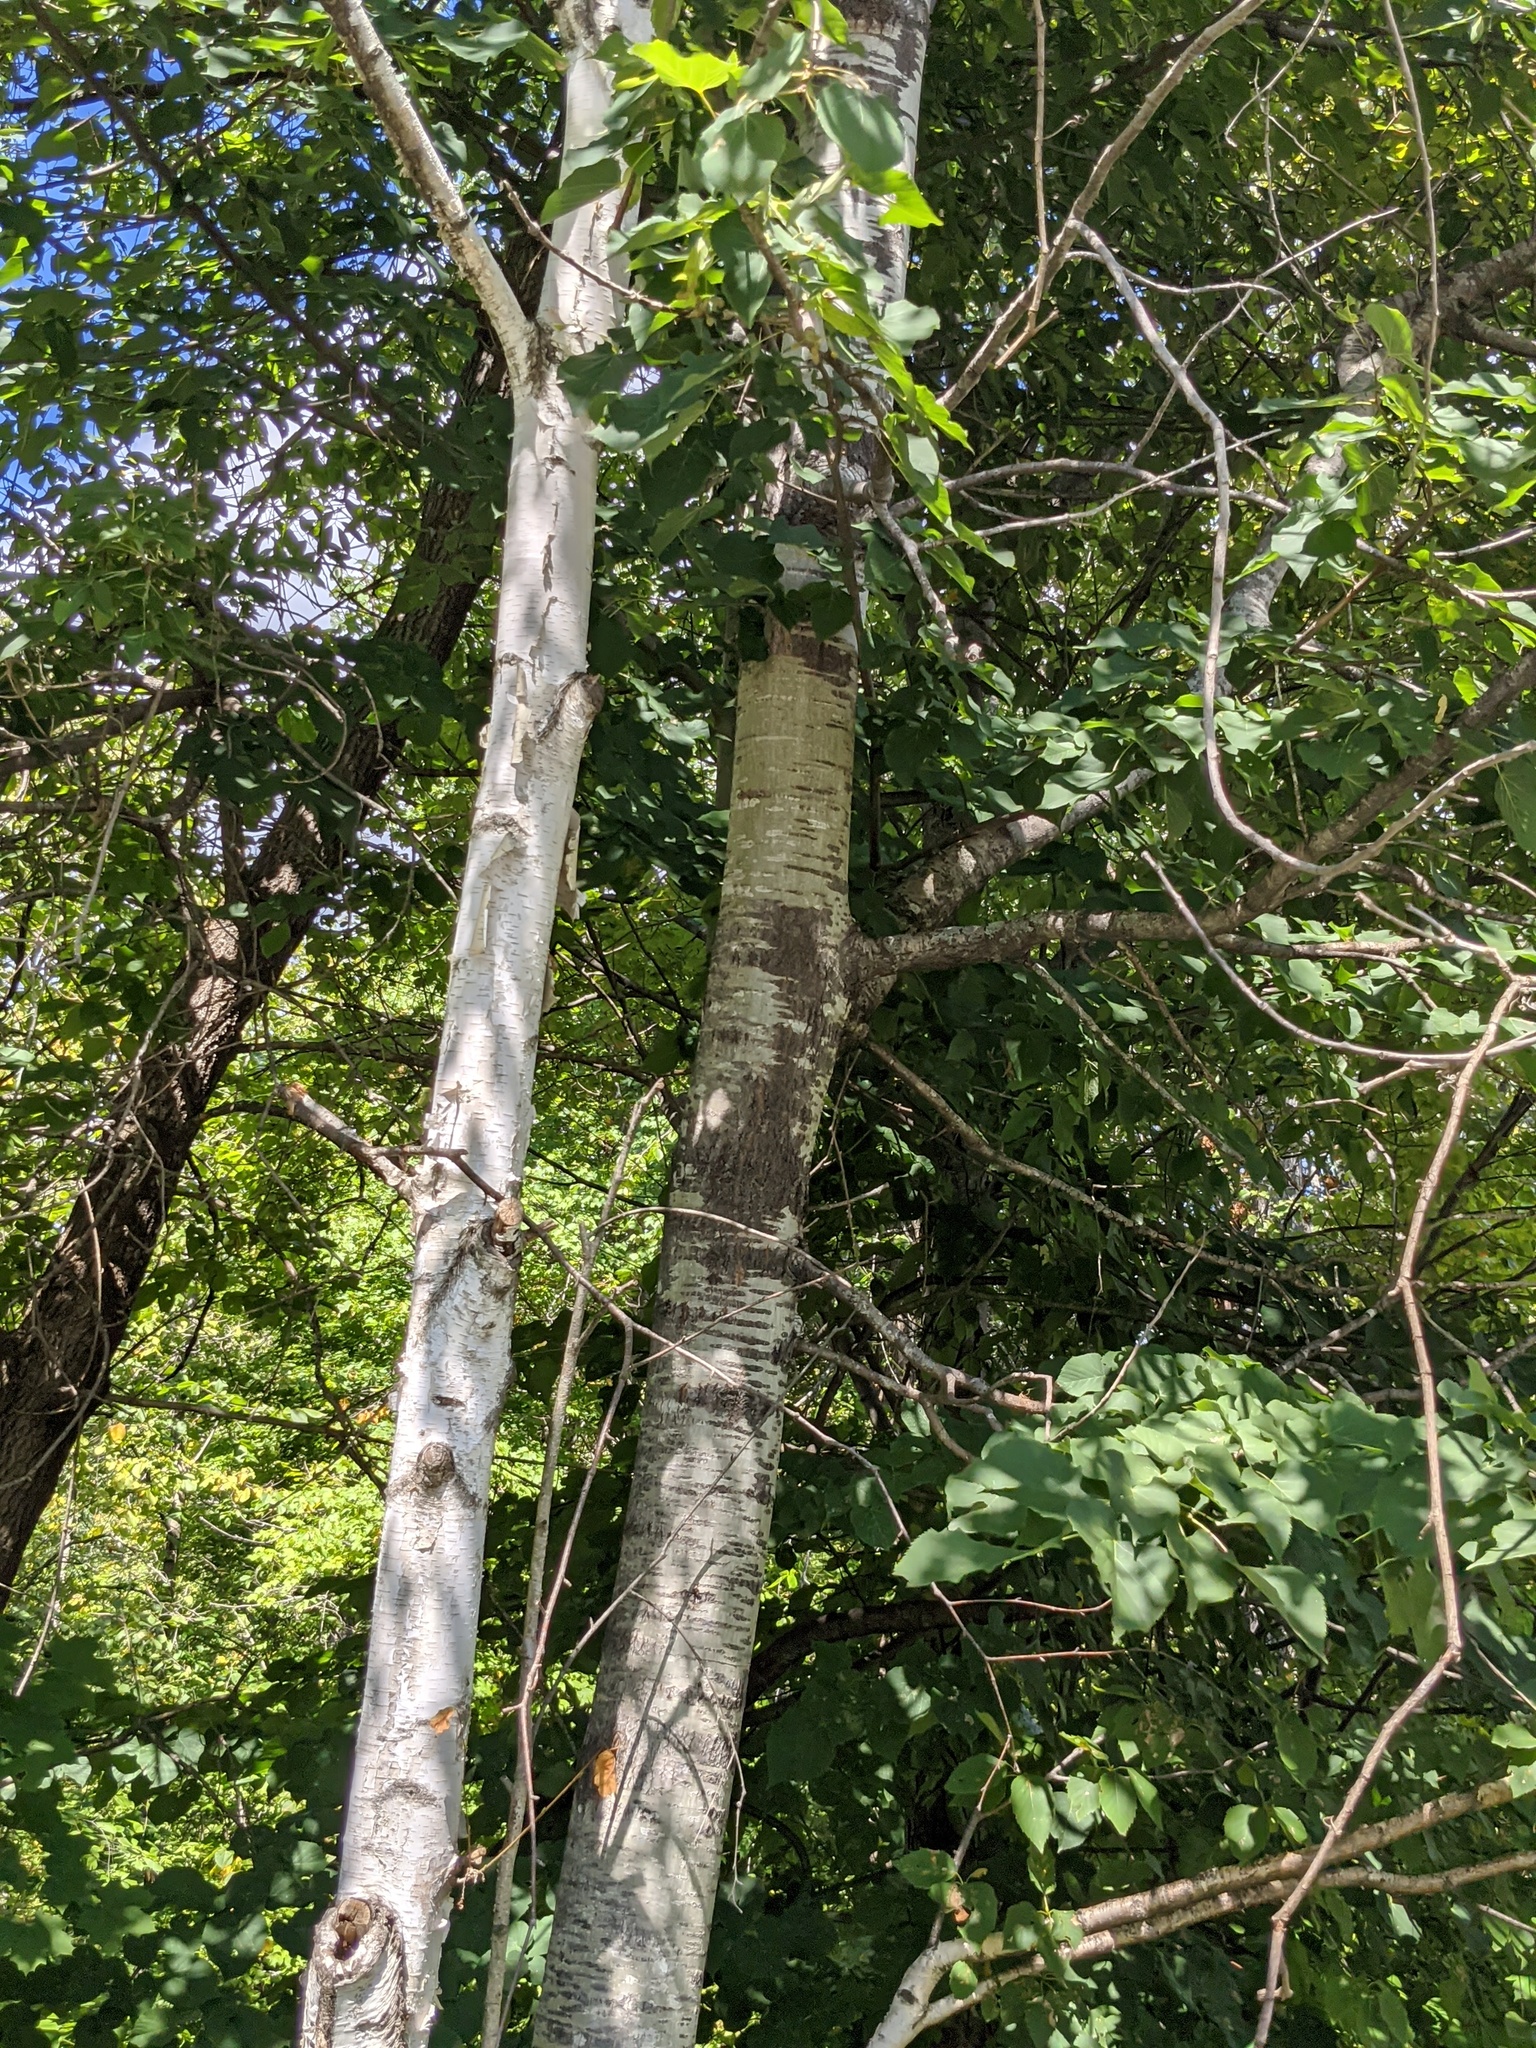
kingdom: Plantae
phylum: Tracheophyta
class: Magnoliopsida
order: Malpighiales
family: Salicaceae
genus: Populus
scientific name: Populus grandidentata
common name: Bigtooth aspen
